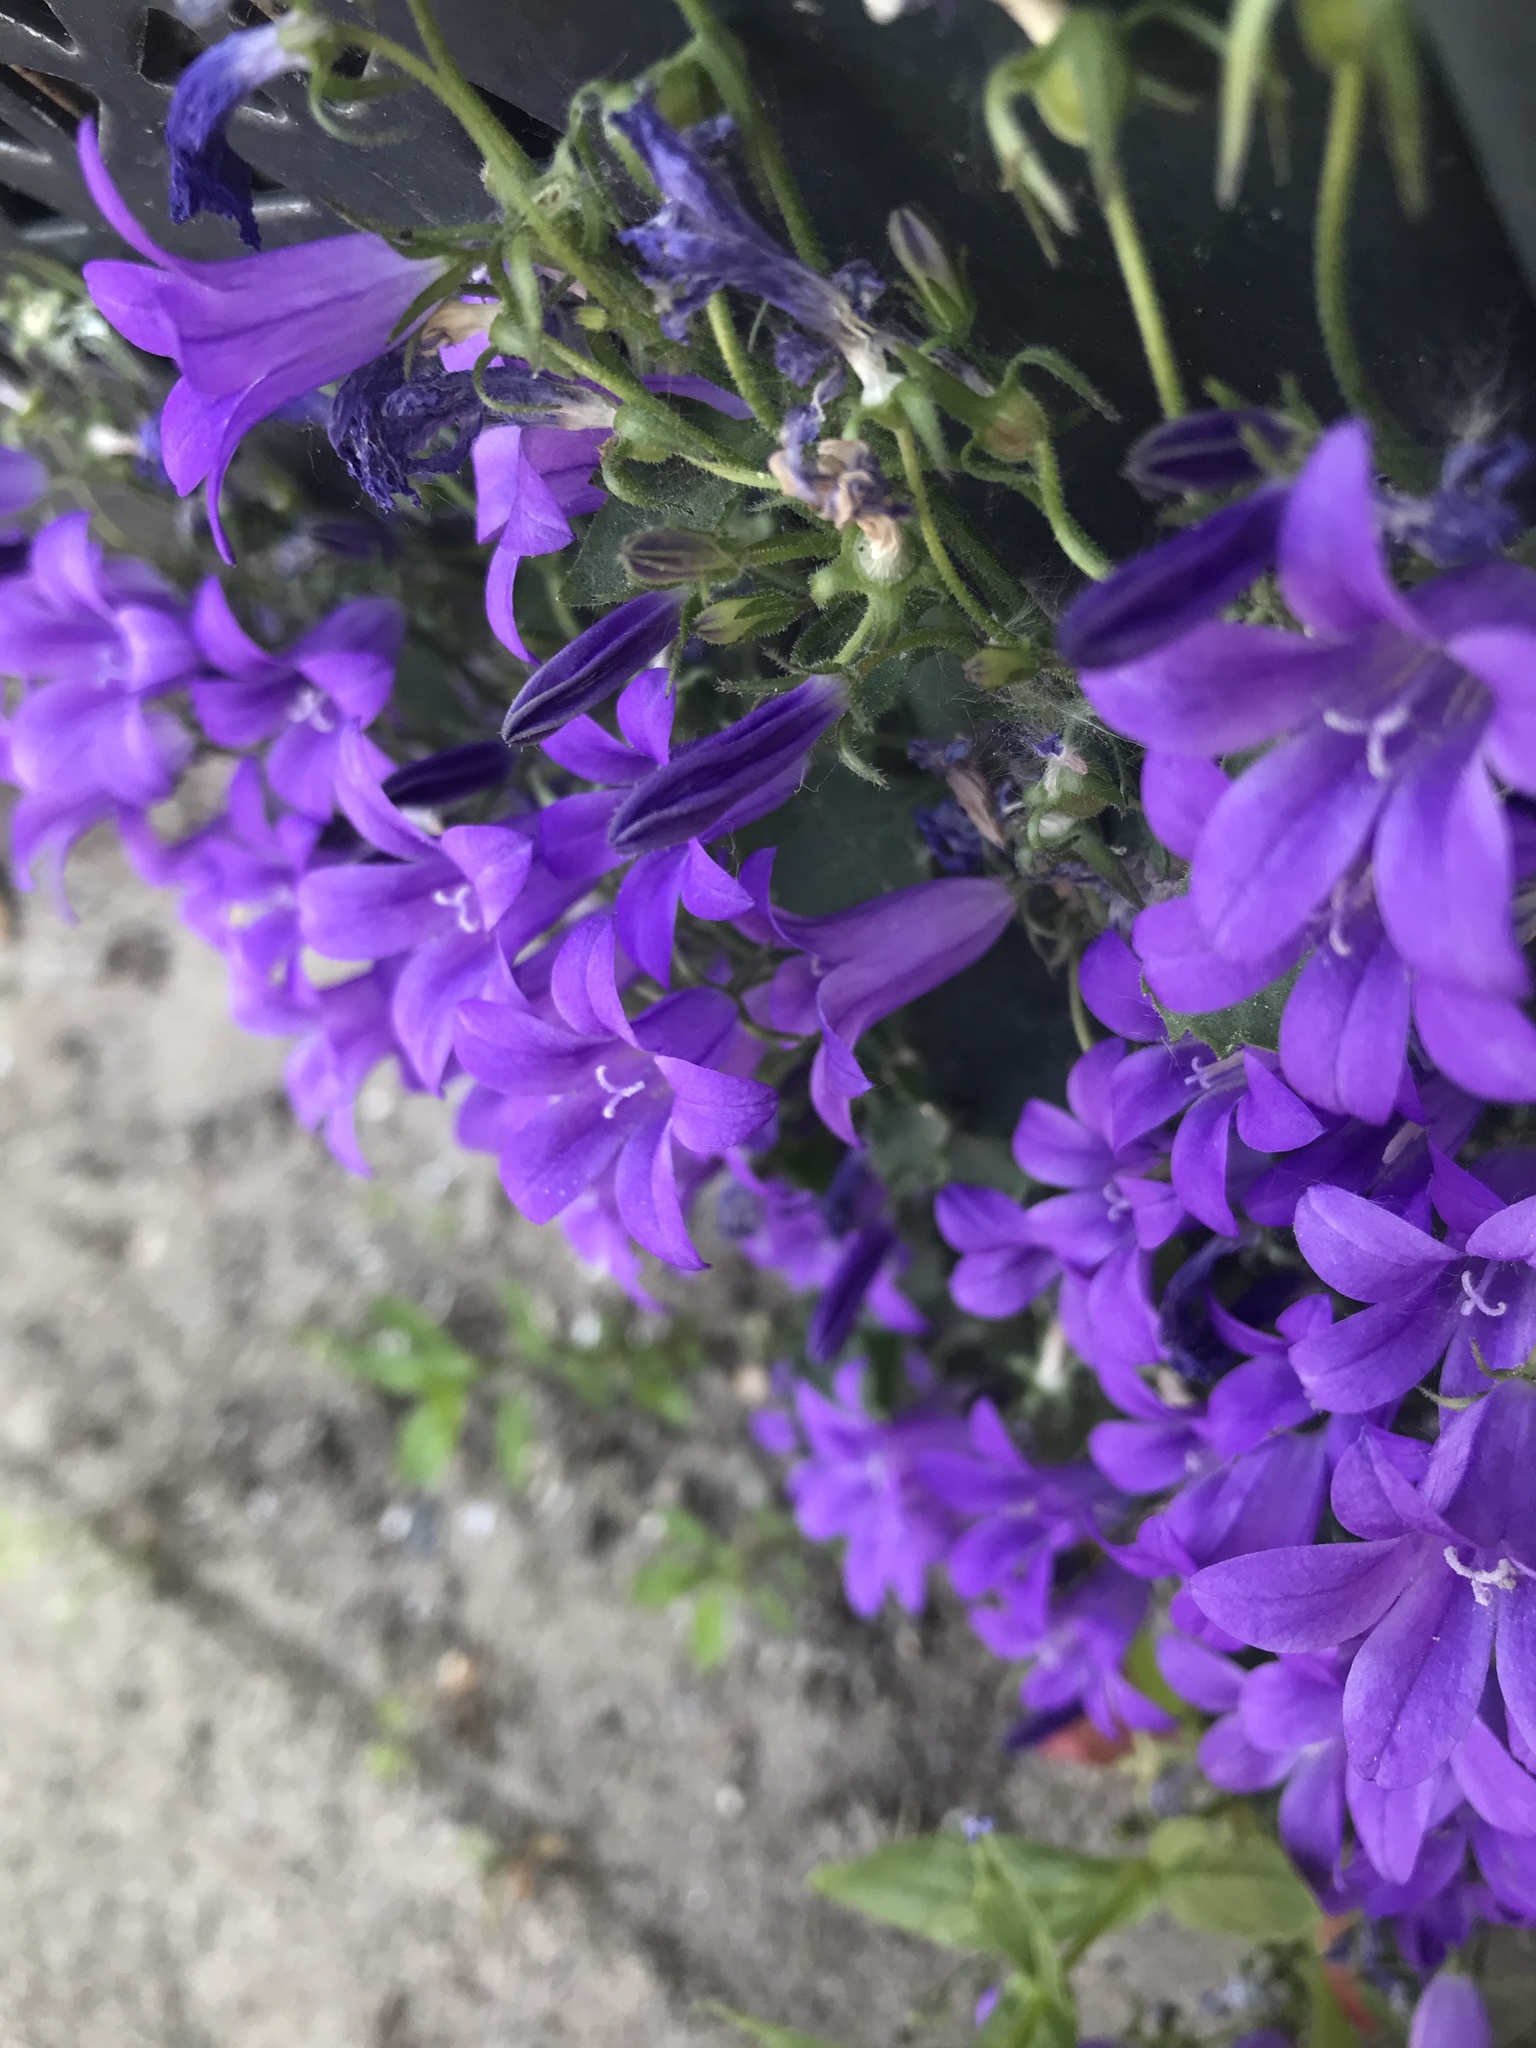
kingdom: Plantae
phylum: Tracheophyta
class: Magnoliopsida
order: Asterales
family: Campanulaceae
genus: Campanula
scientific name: Campanula poscharskyana
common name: Trailing bellflower
